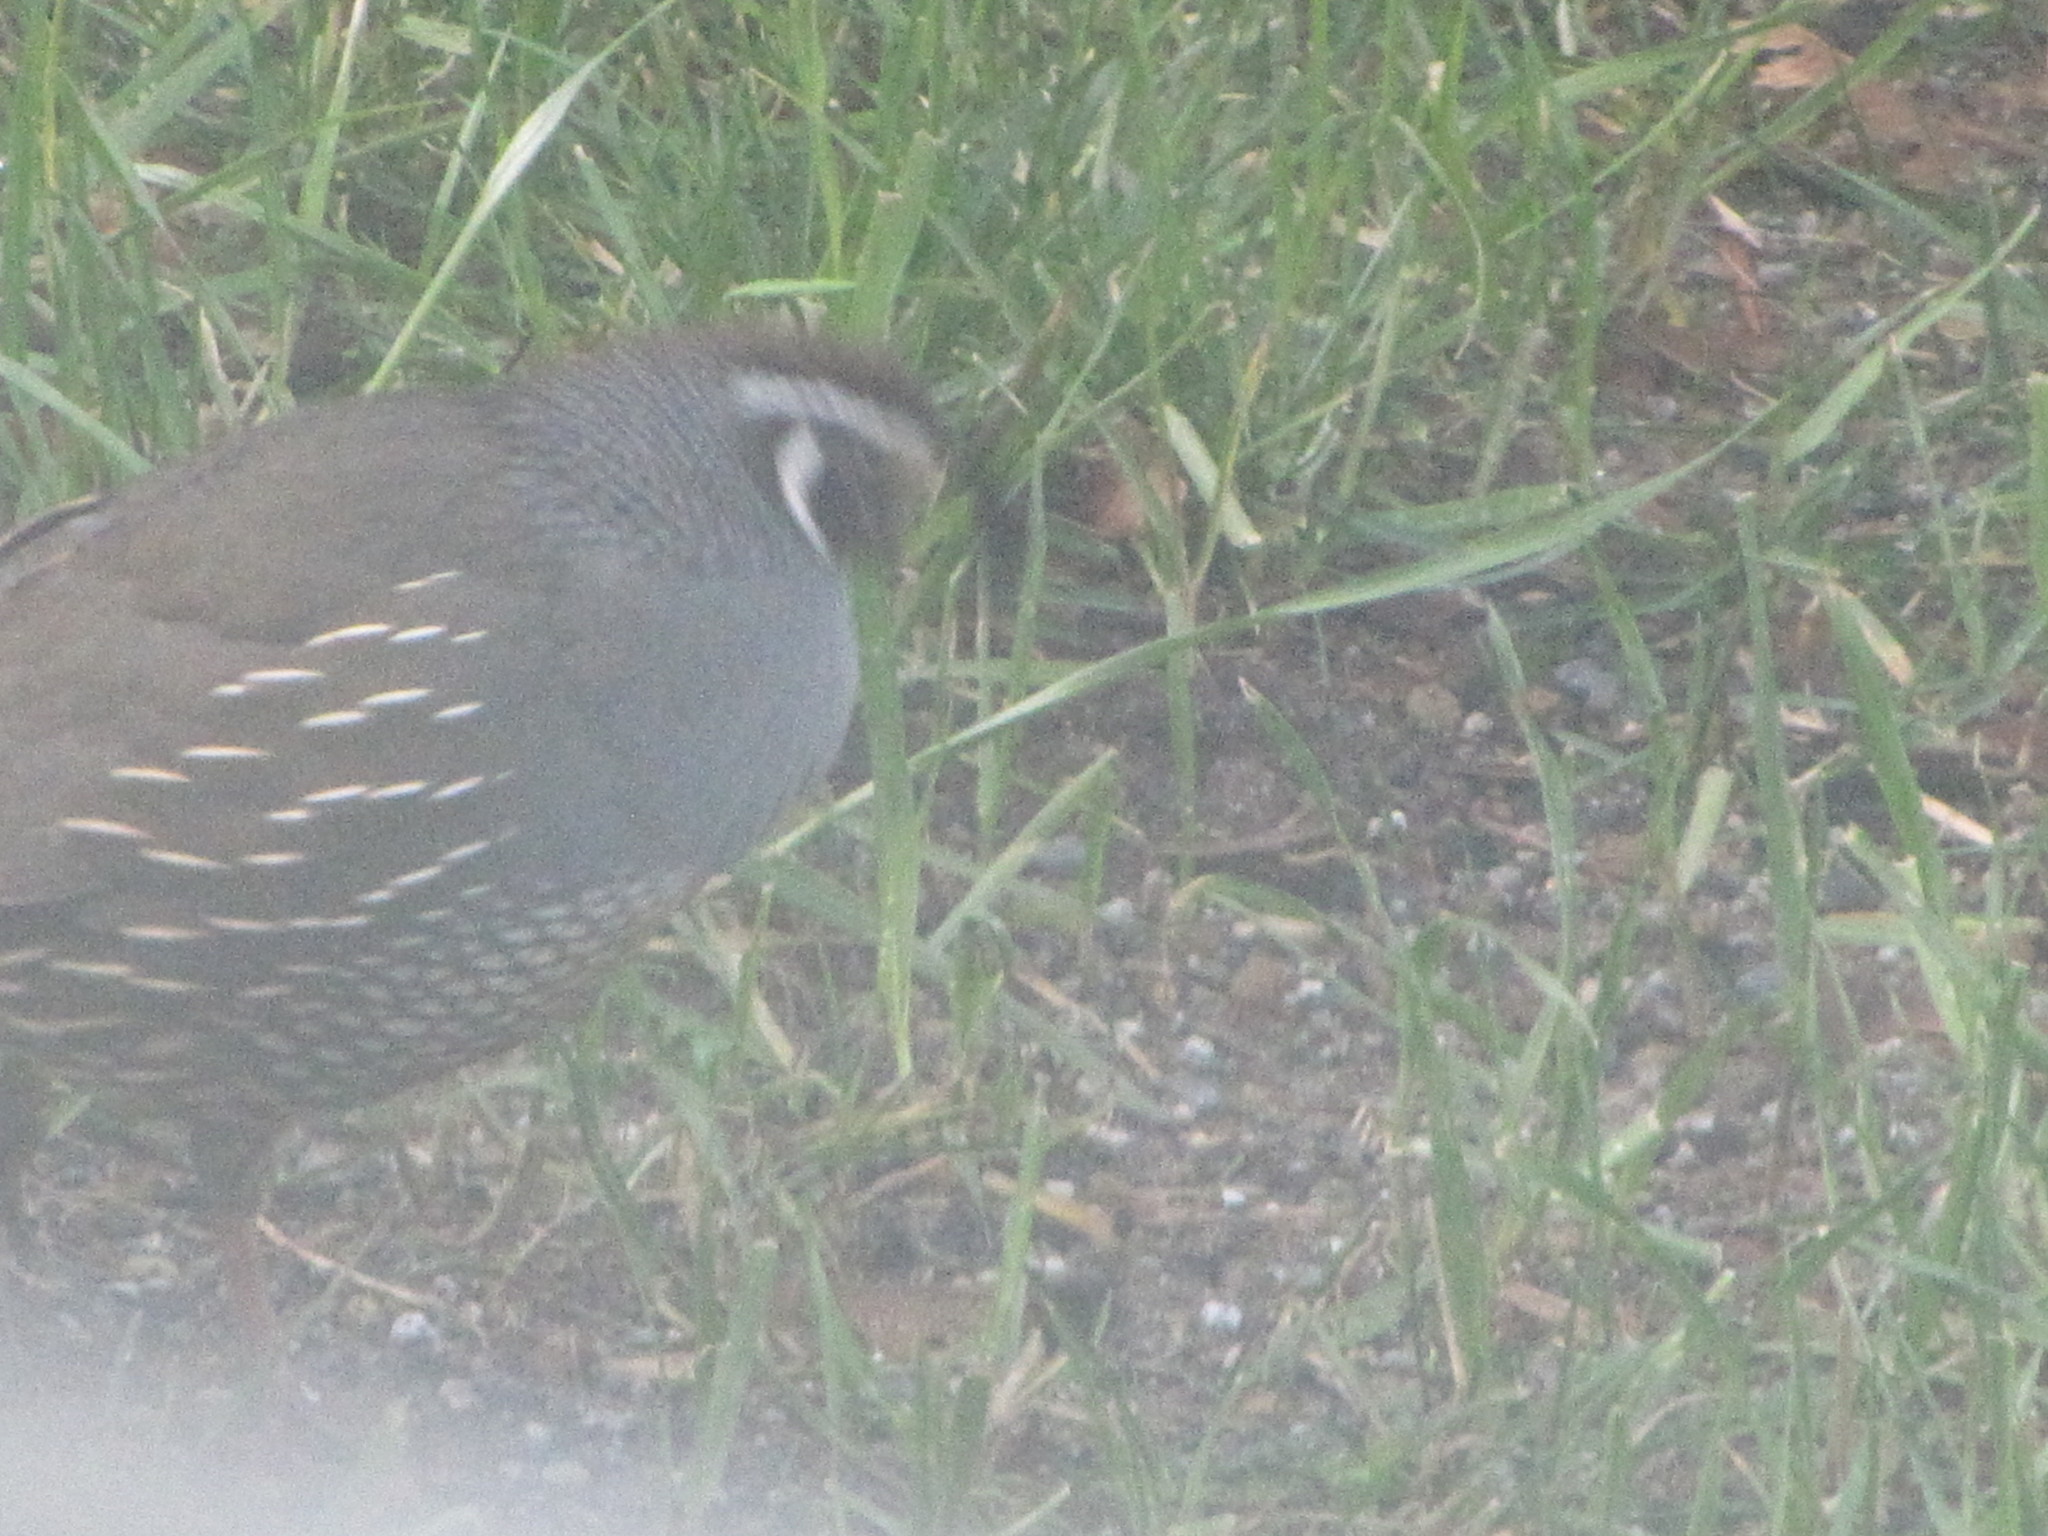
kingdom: Animalia
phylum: Chordata
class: Aves
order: Galliformes
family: Odontophoridae
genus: Callipepla
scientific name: Callipepla californica
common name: California quail
